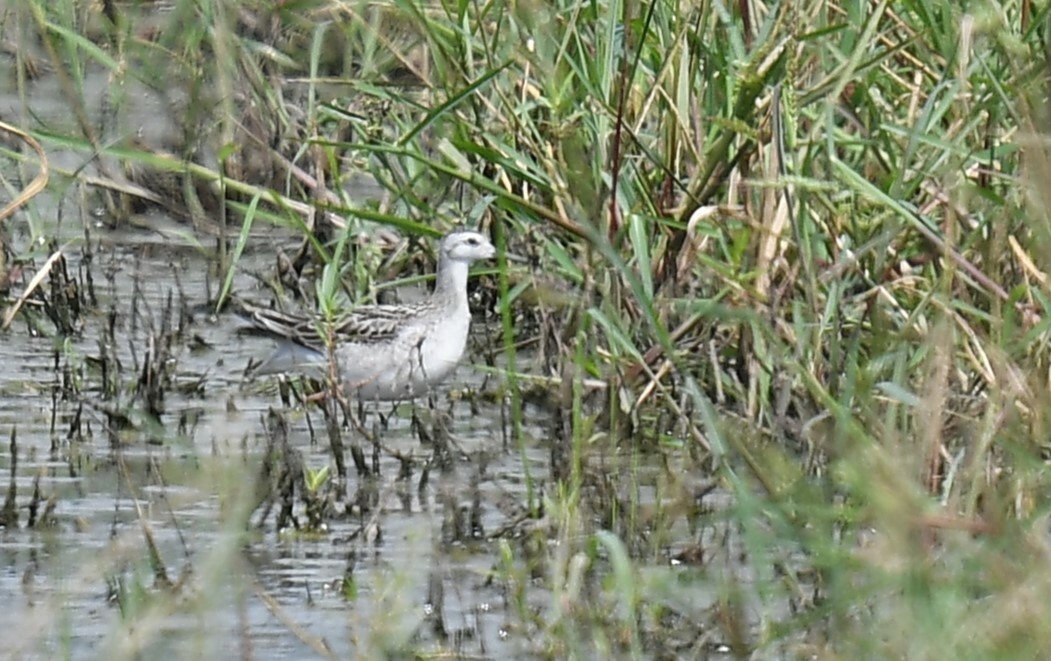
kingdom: Animalia
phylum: Chordata
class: Aves
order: Charadriiformes
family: Scolopacidae
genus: Phalaropus
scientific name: Phalaropus tricolor
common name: Wilson's phalarope
